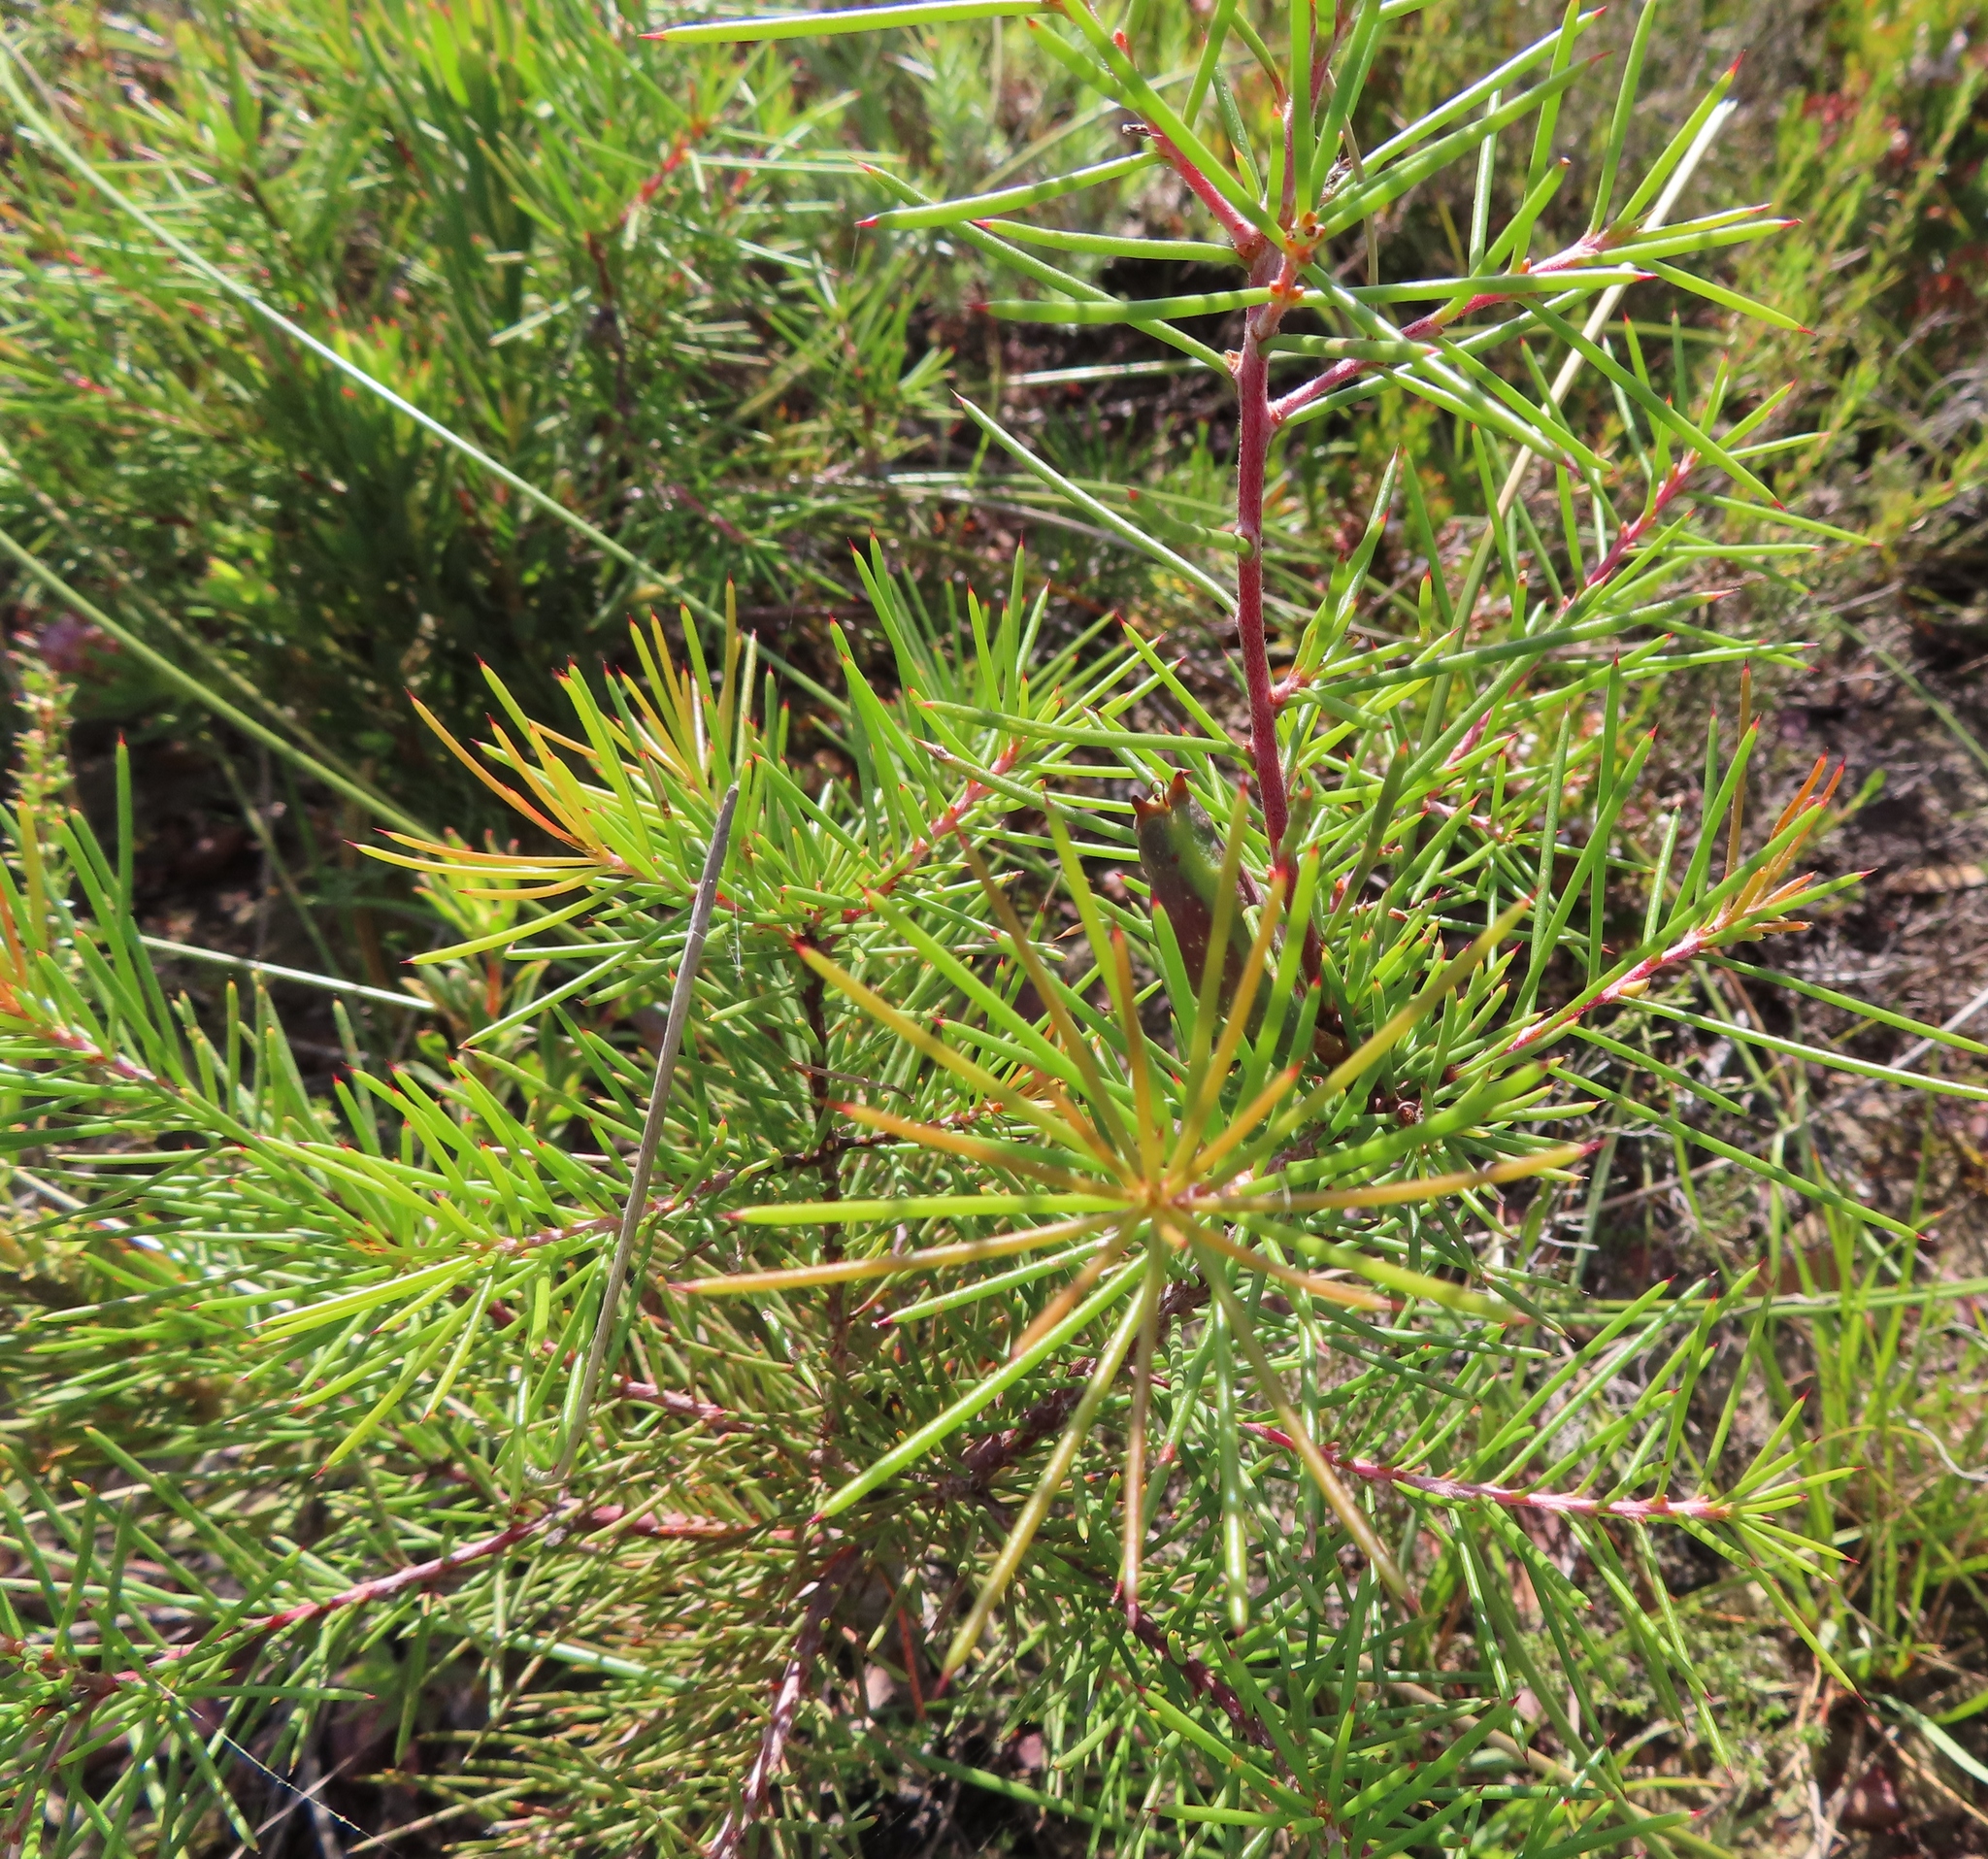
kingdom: Plantae
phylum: Tracheophyta
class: Magnoliopsida
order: Proteales
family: Proteaceae
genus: Hakea
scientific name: Hakea sericea
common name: Needle bush
